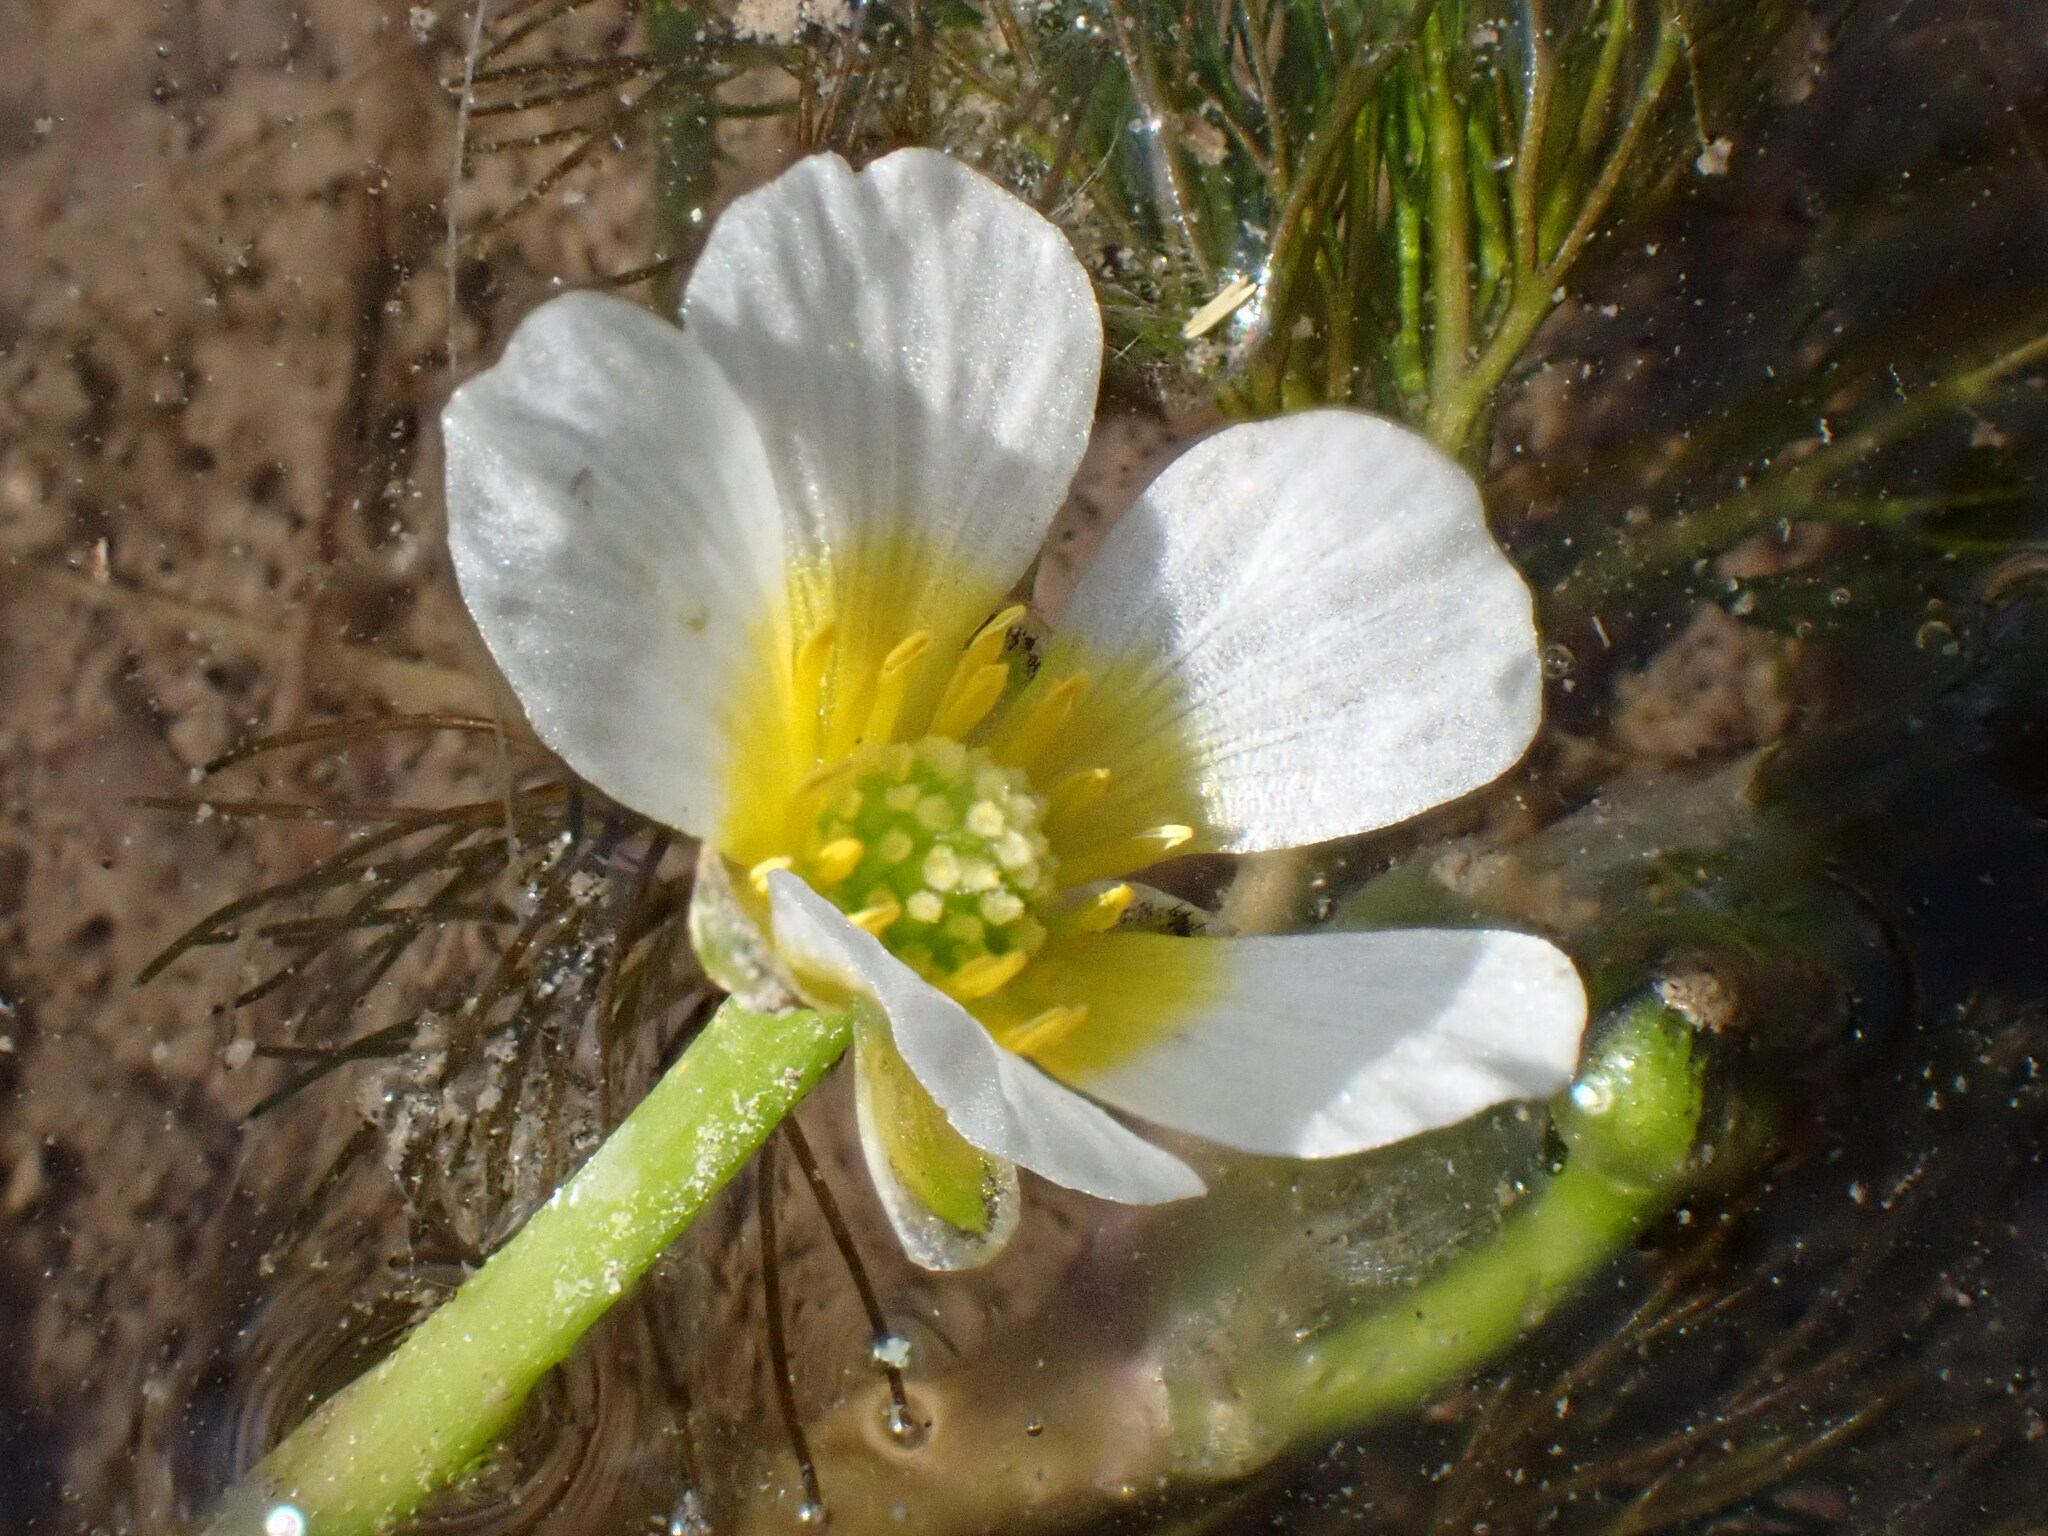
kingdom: Plantae
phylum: Tracheophyta
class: Magnoliopsida
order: Ranunculales
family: Ranunculaceae
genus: Ranunculus
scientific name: Ranunculus trichophyllus
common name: Thread-leaved water-crowfoot
